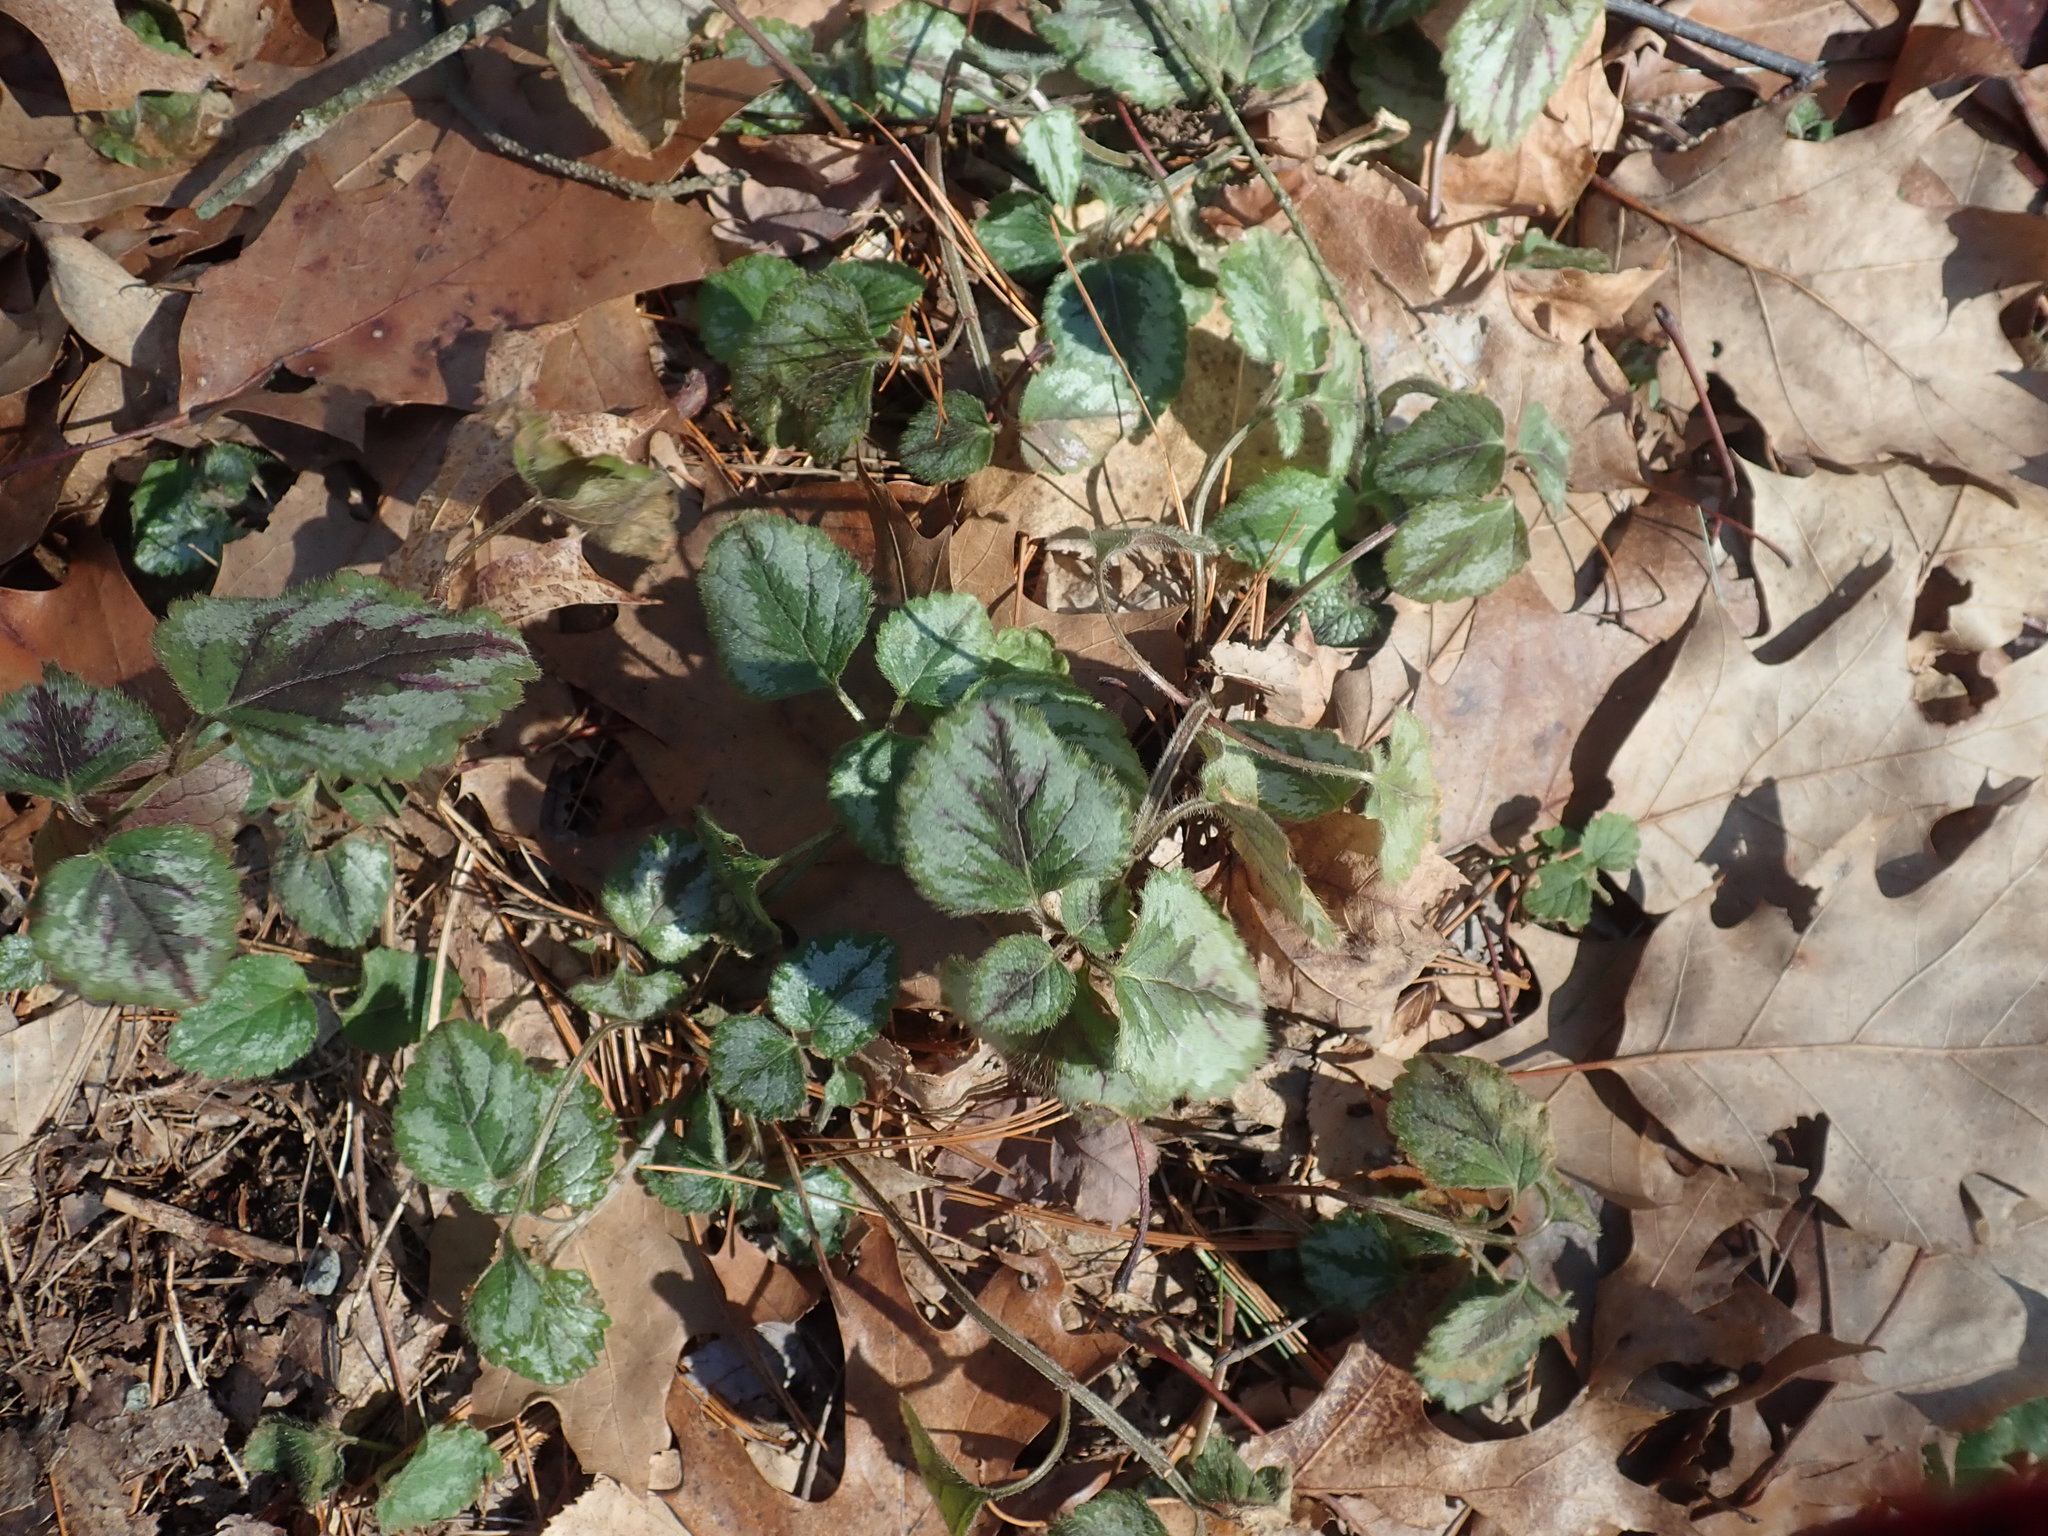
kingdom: Plantae
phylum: Tracheophyta
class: Magnoliopsida
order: Lamiales
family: Lamiaceae
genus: Lamium
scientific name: Lamium galeobdolon
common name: Yellow archangel
